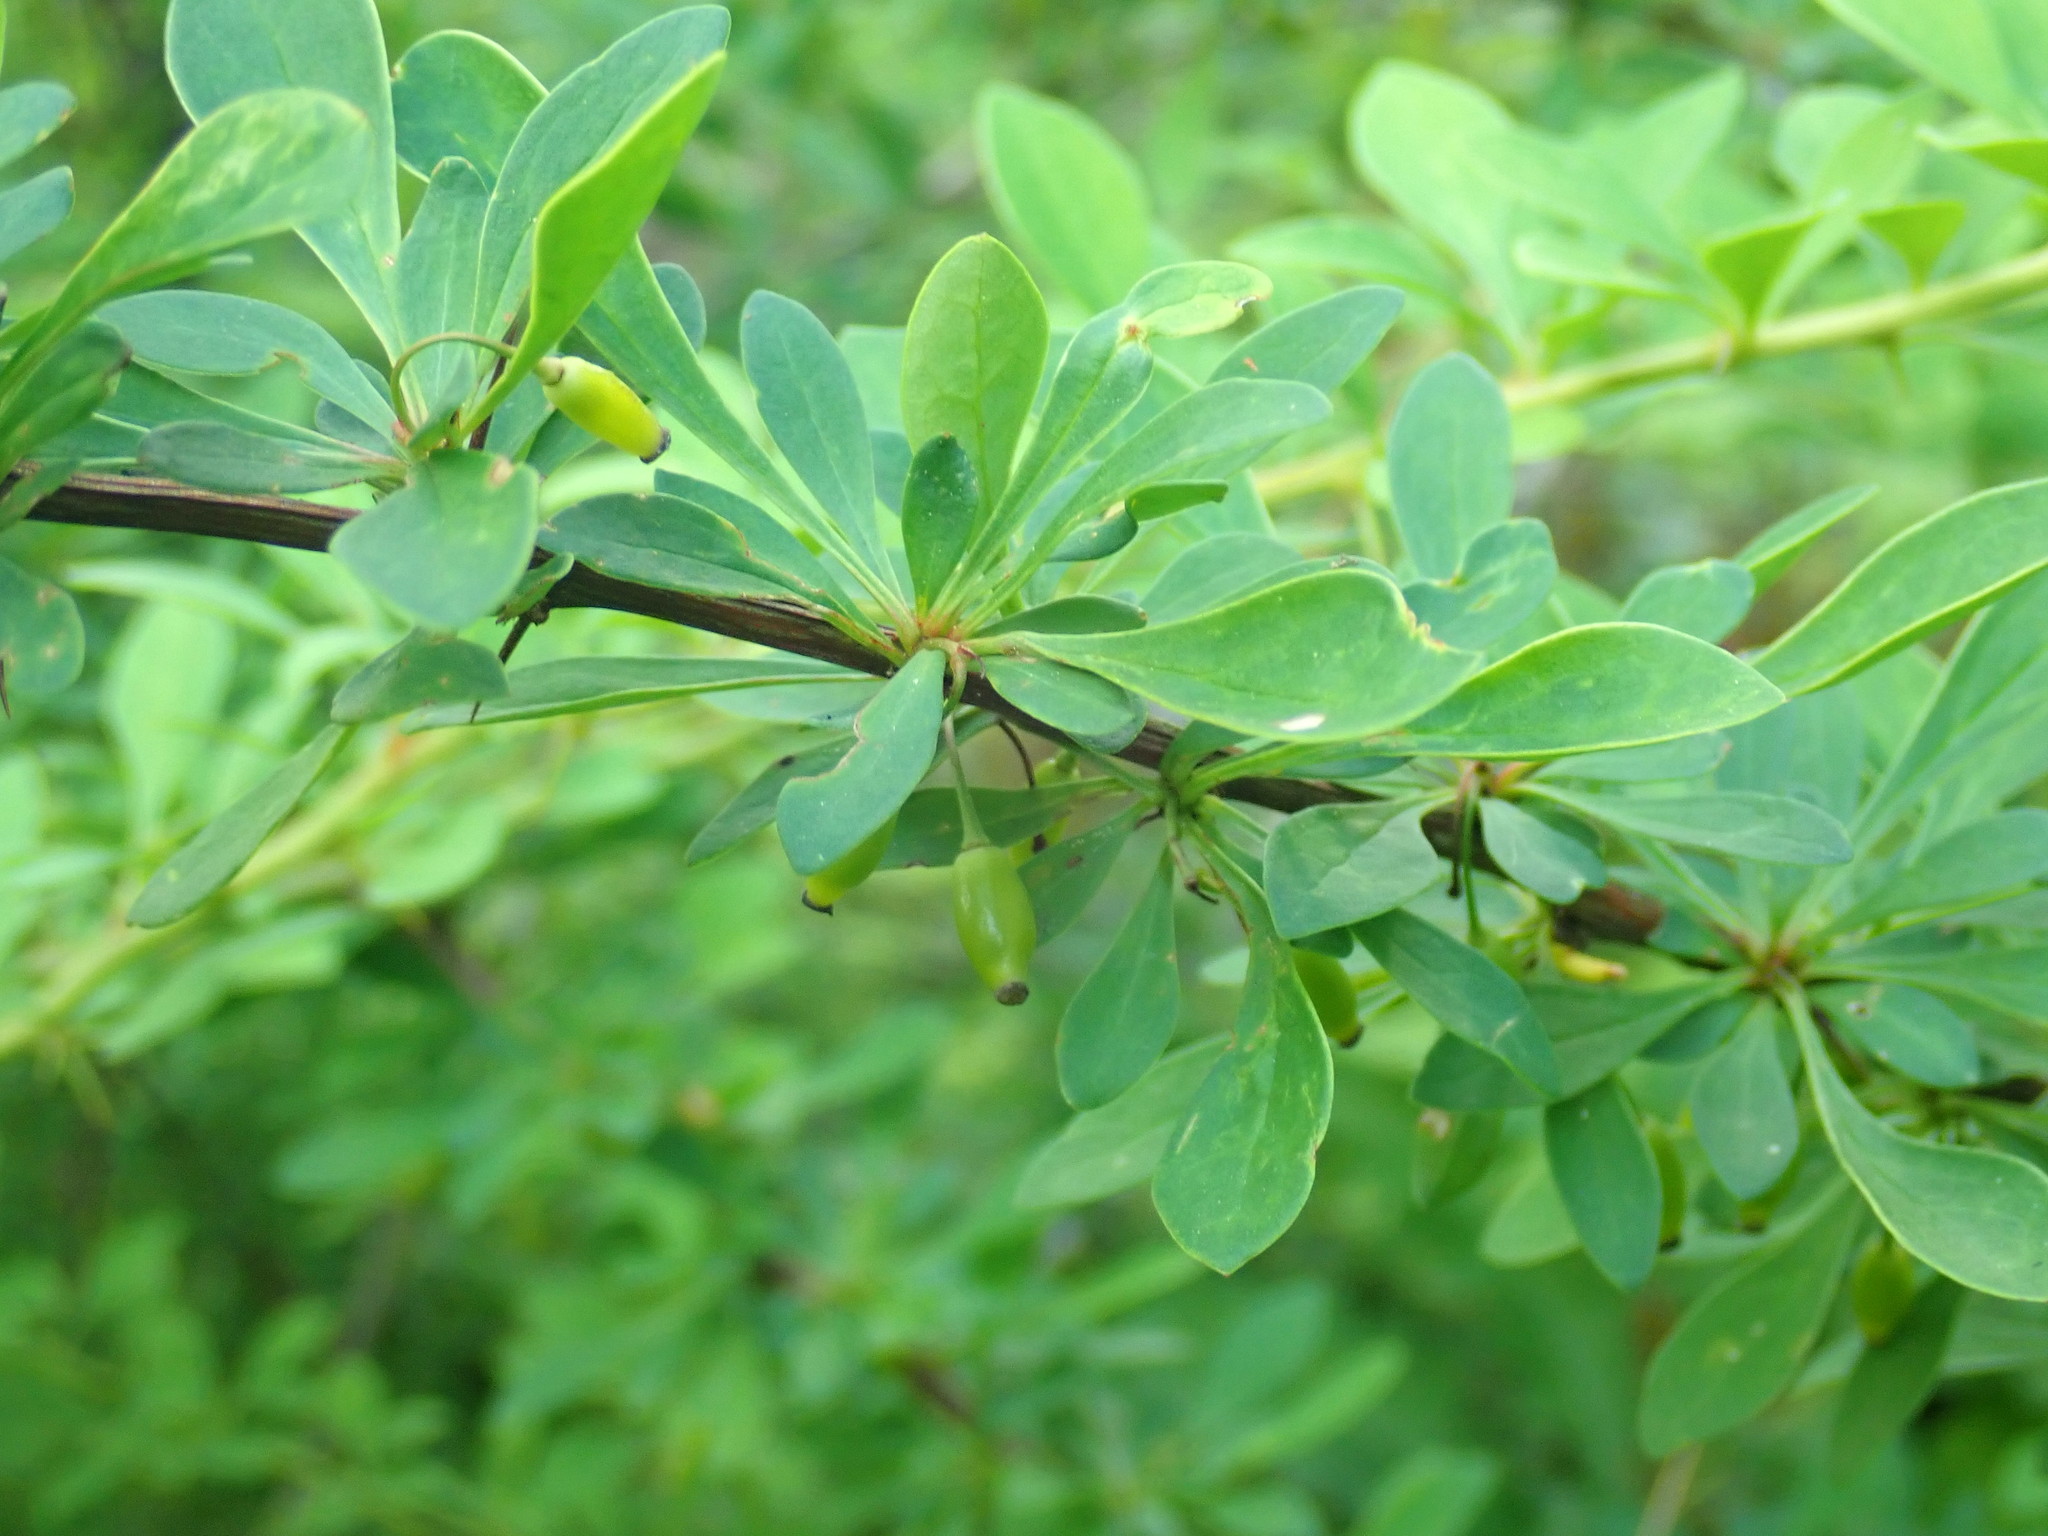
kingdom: Plantae
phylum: Tracheophyta
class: Magnoliopsida
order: Ranunculales
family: Berberidaceae
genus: Berberis
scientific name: Berberis thunbergii
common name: Japanese barberry
